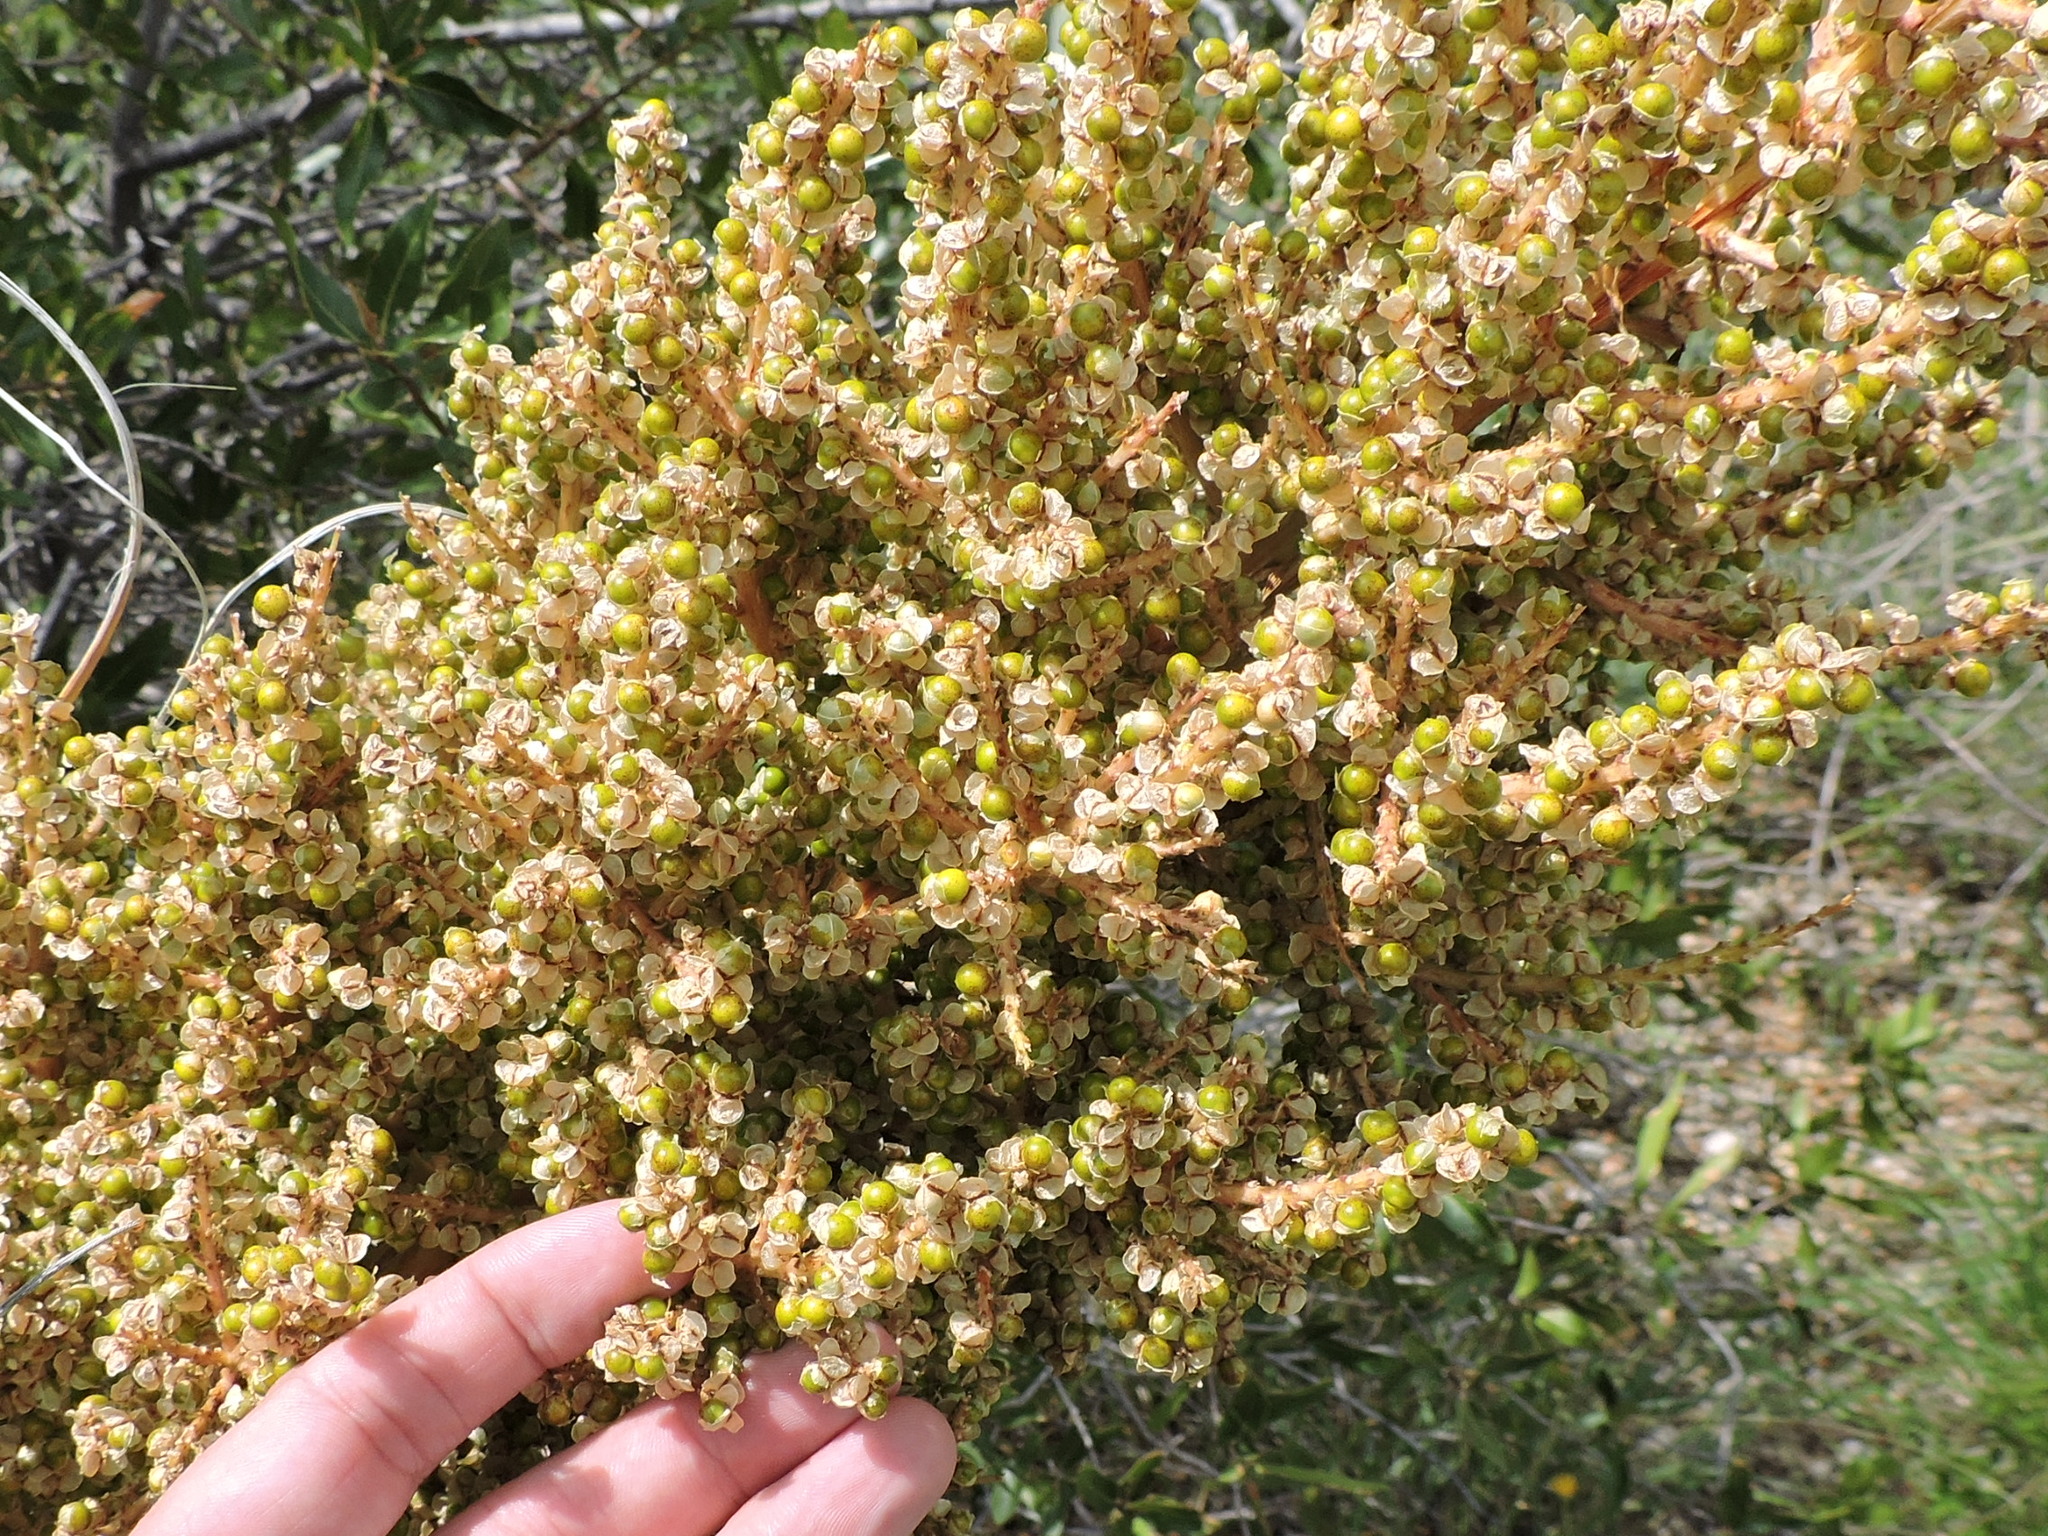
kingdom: Plantae
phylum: Tracheophyta
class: Liliopsida
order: Asparagales
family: Asparagaceae
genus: Nolina
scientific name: Nolina erumpens
